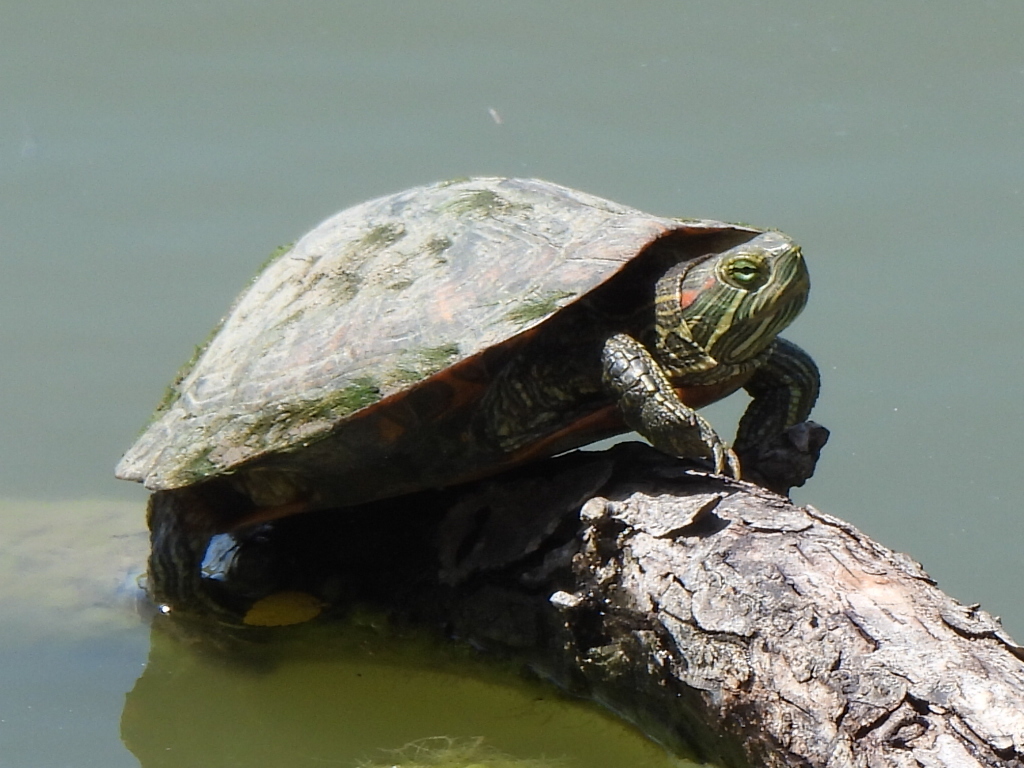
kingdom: Animalia
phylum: Chordata
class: Testudines
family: Emydidae
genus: Trachemys
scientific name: Trachemys scripta
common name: Slider
